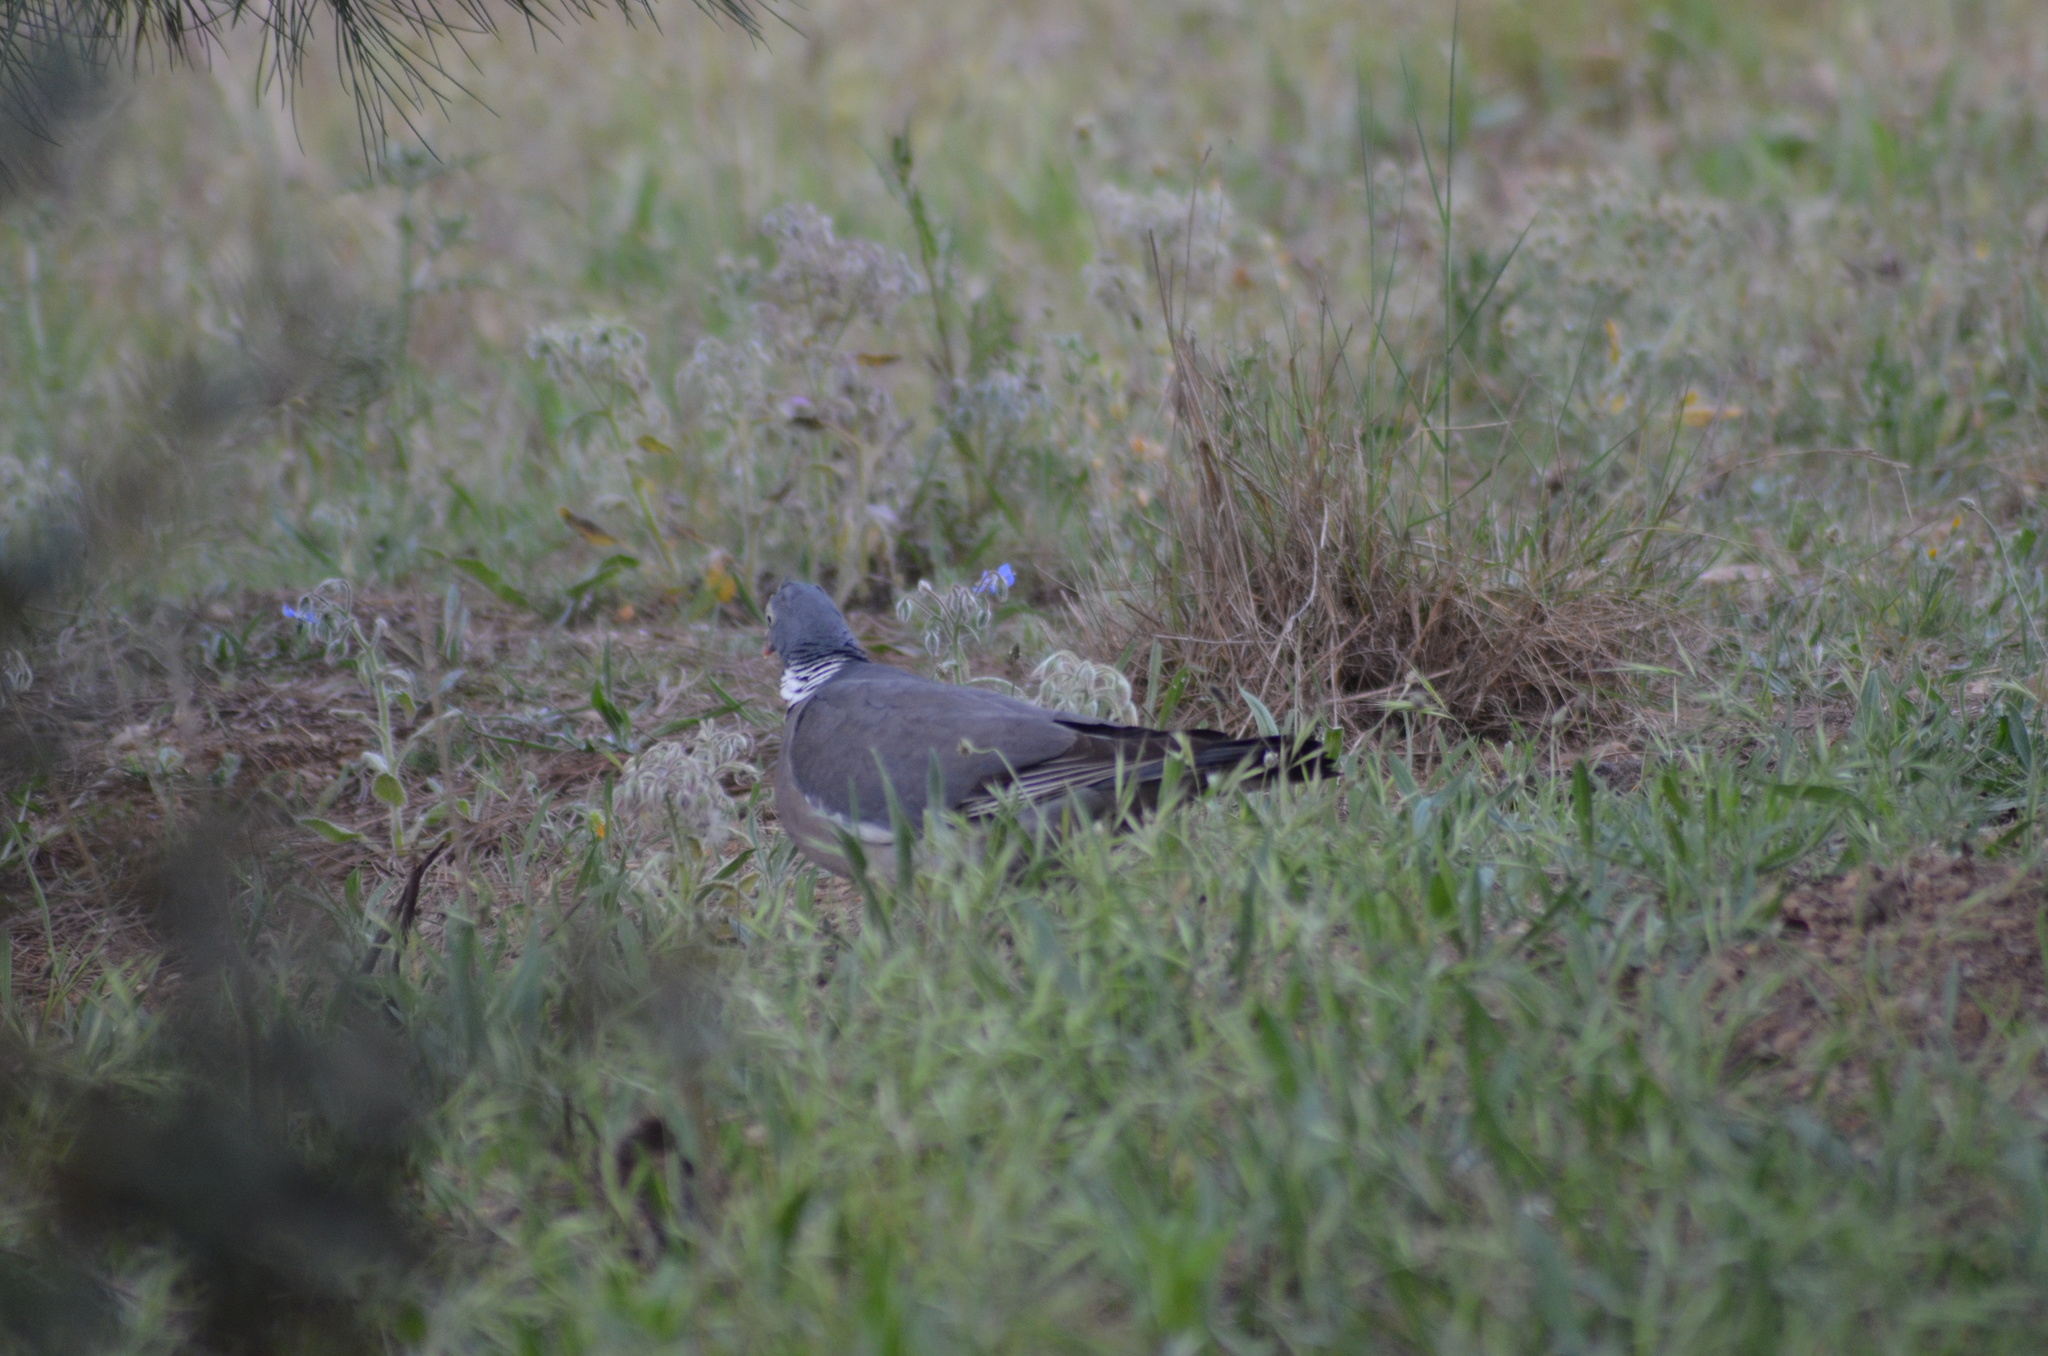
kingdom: Animalia
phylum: Chordata
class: Aves
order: Columbiformes
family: Columbidae
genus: Columba
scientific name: Columba palumbus
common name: Common wood pigeon
